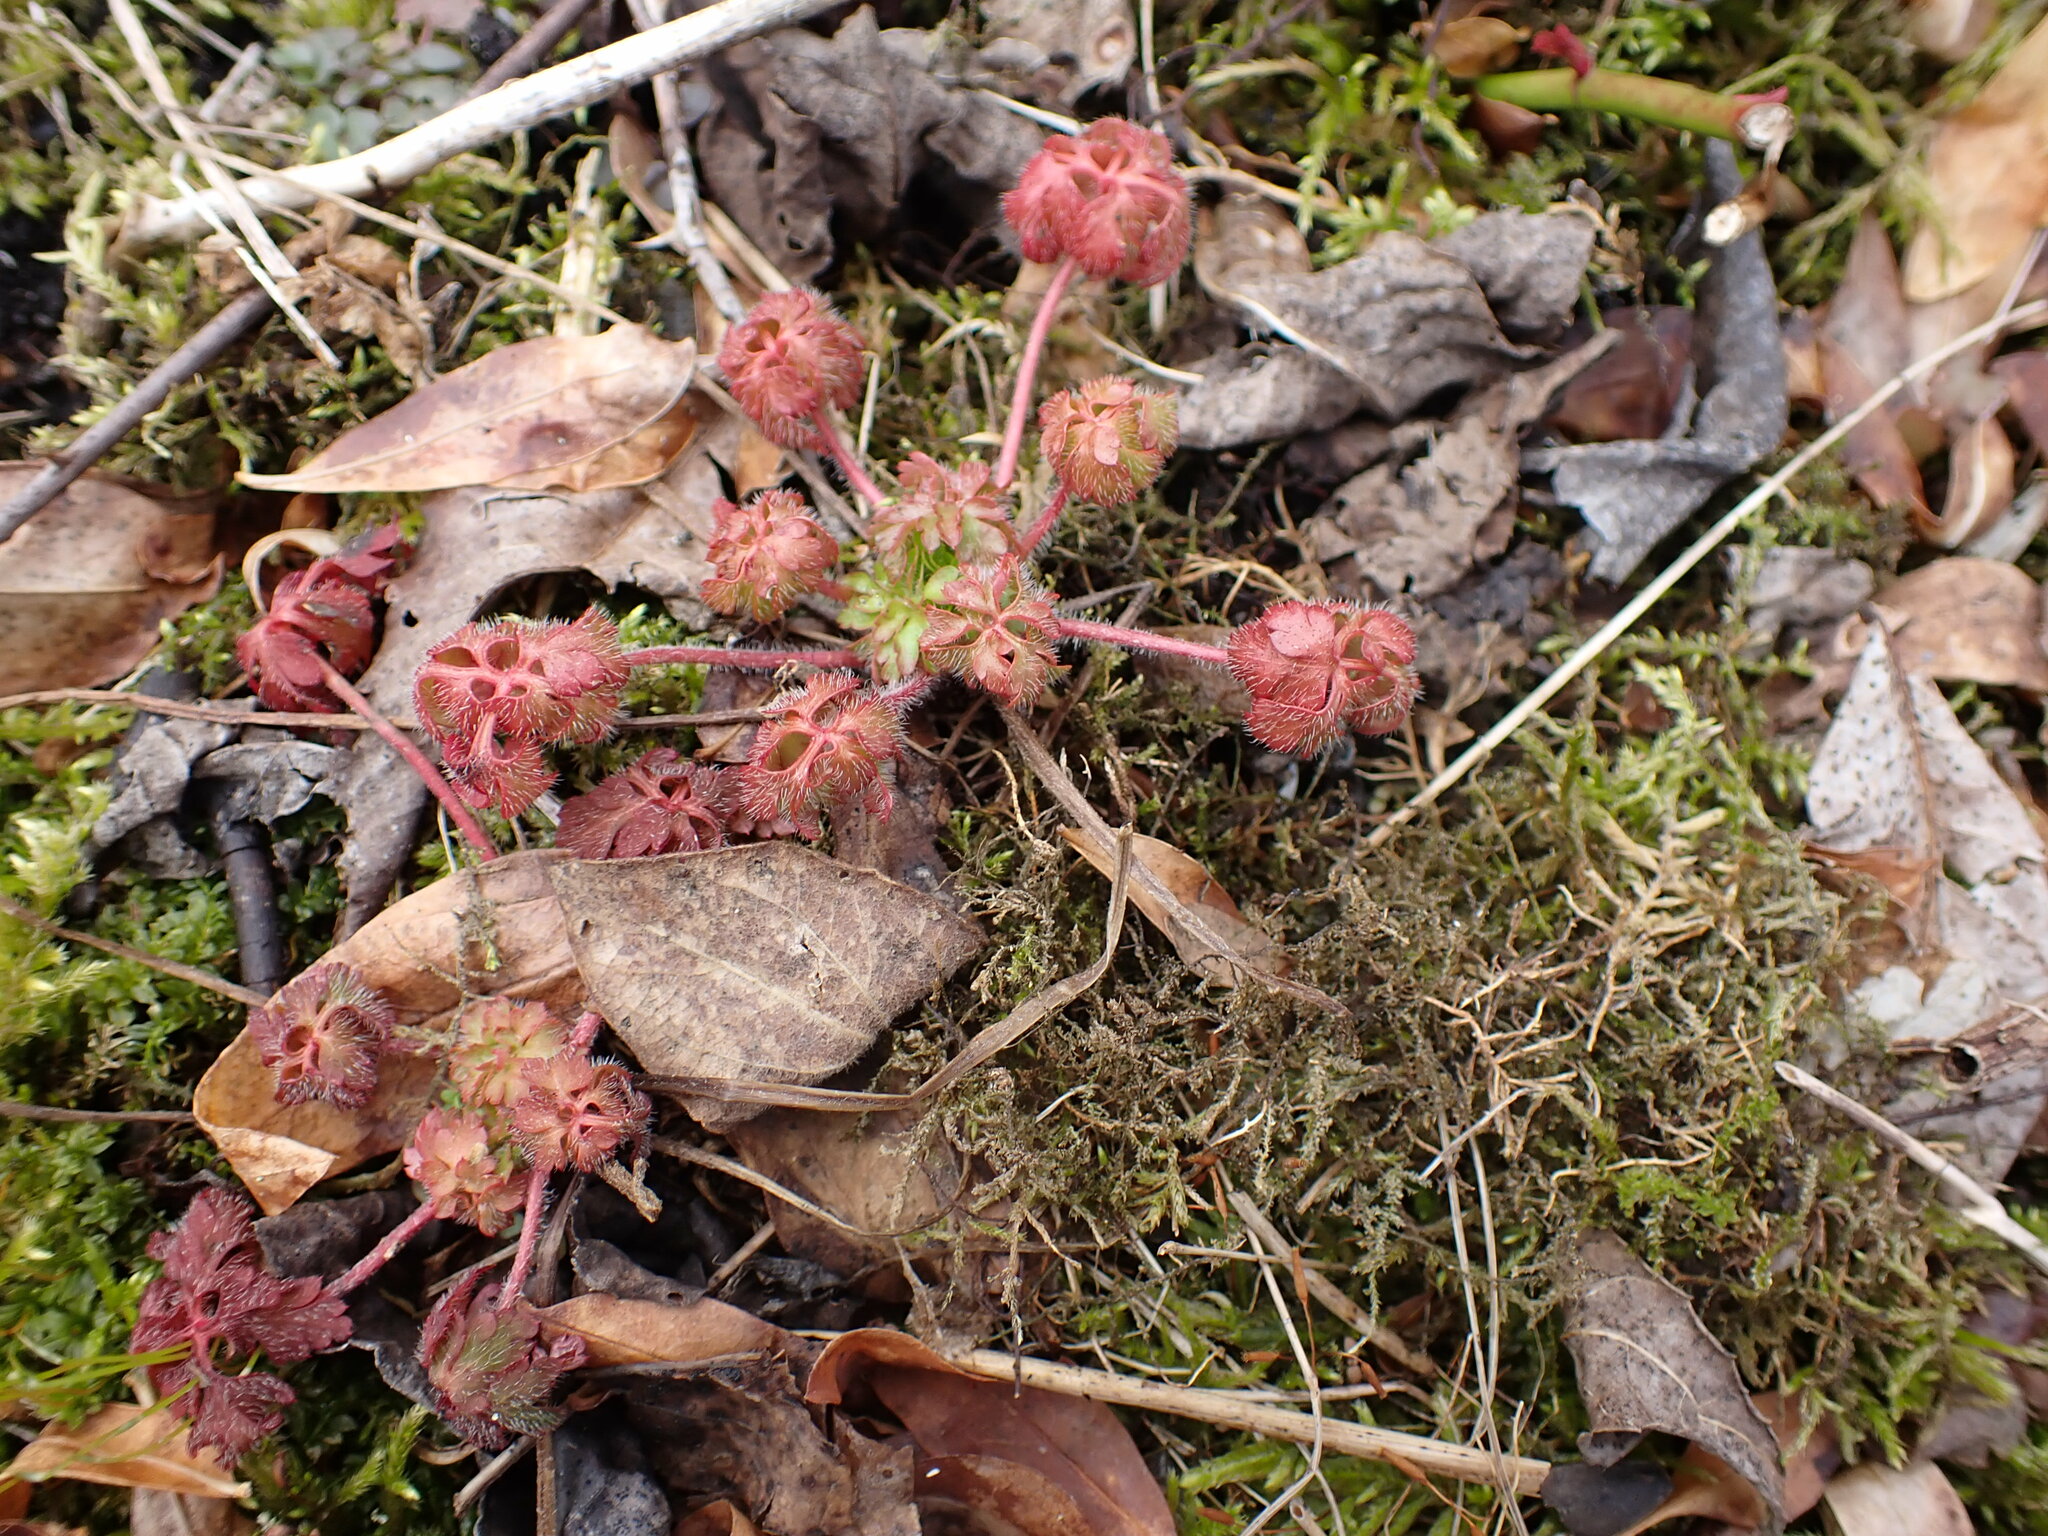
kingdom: Plantae
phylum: Tracheophyta
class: Magnoliopsida
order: Geraniales
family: Geraniaceae
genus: Geranium
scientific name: Geranium robertianum
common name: Herb-robert
